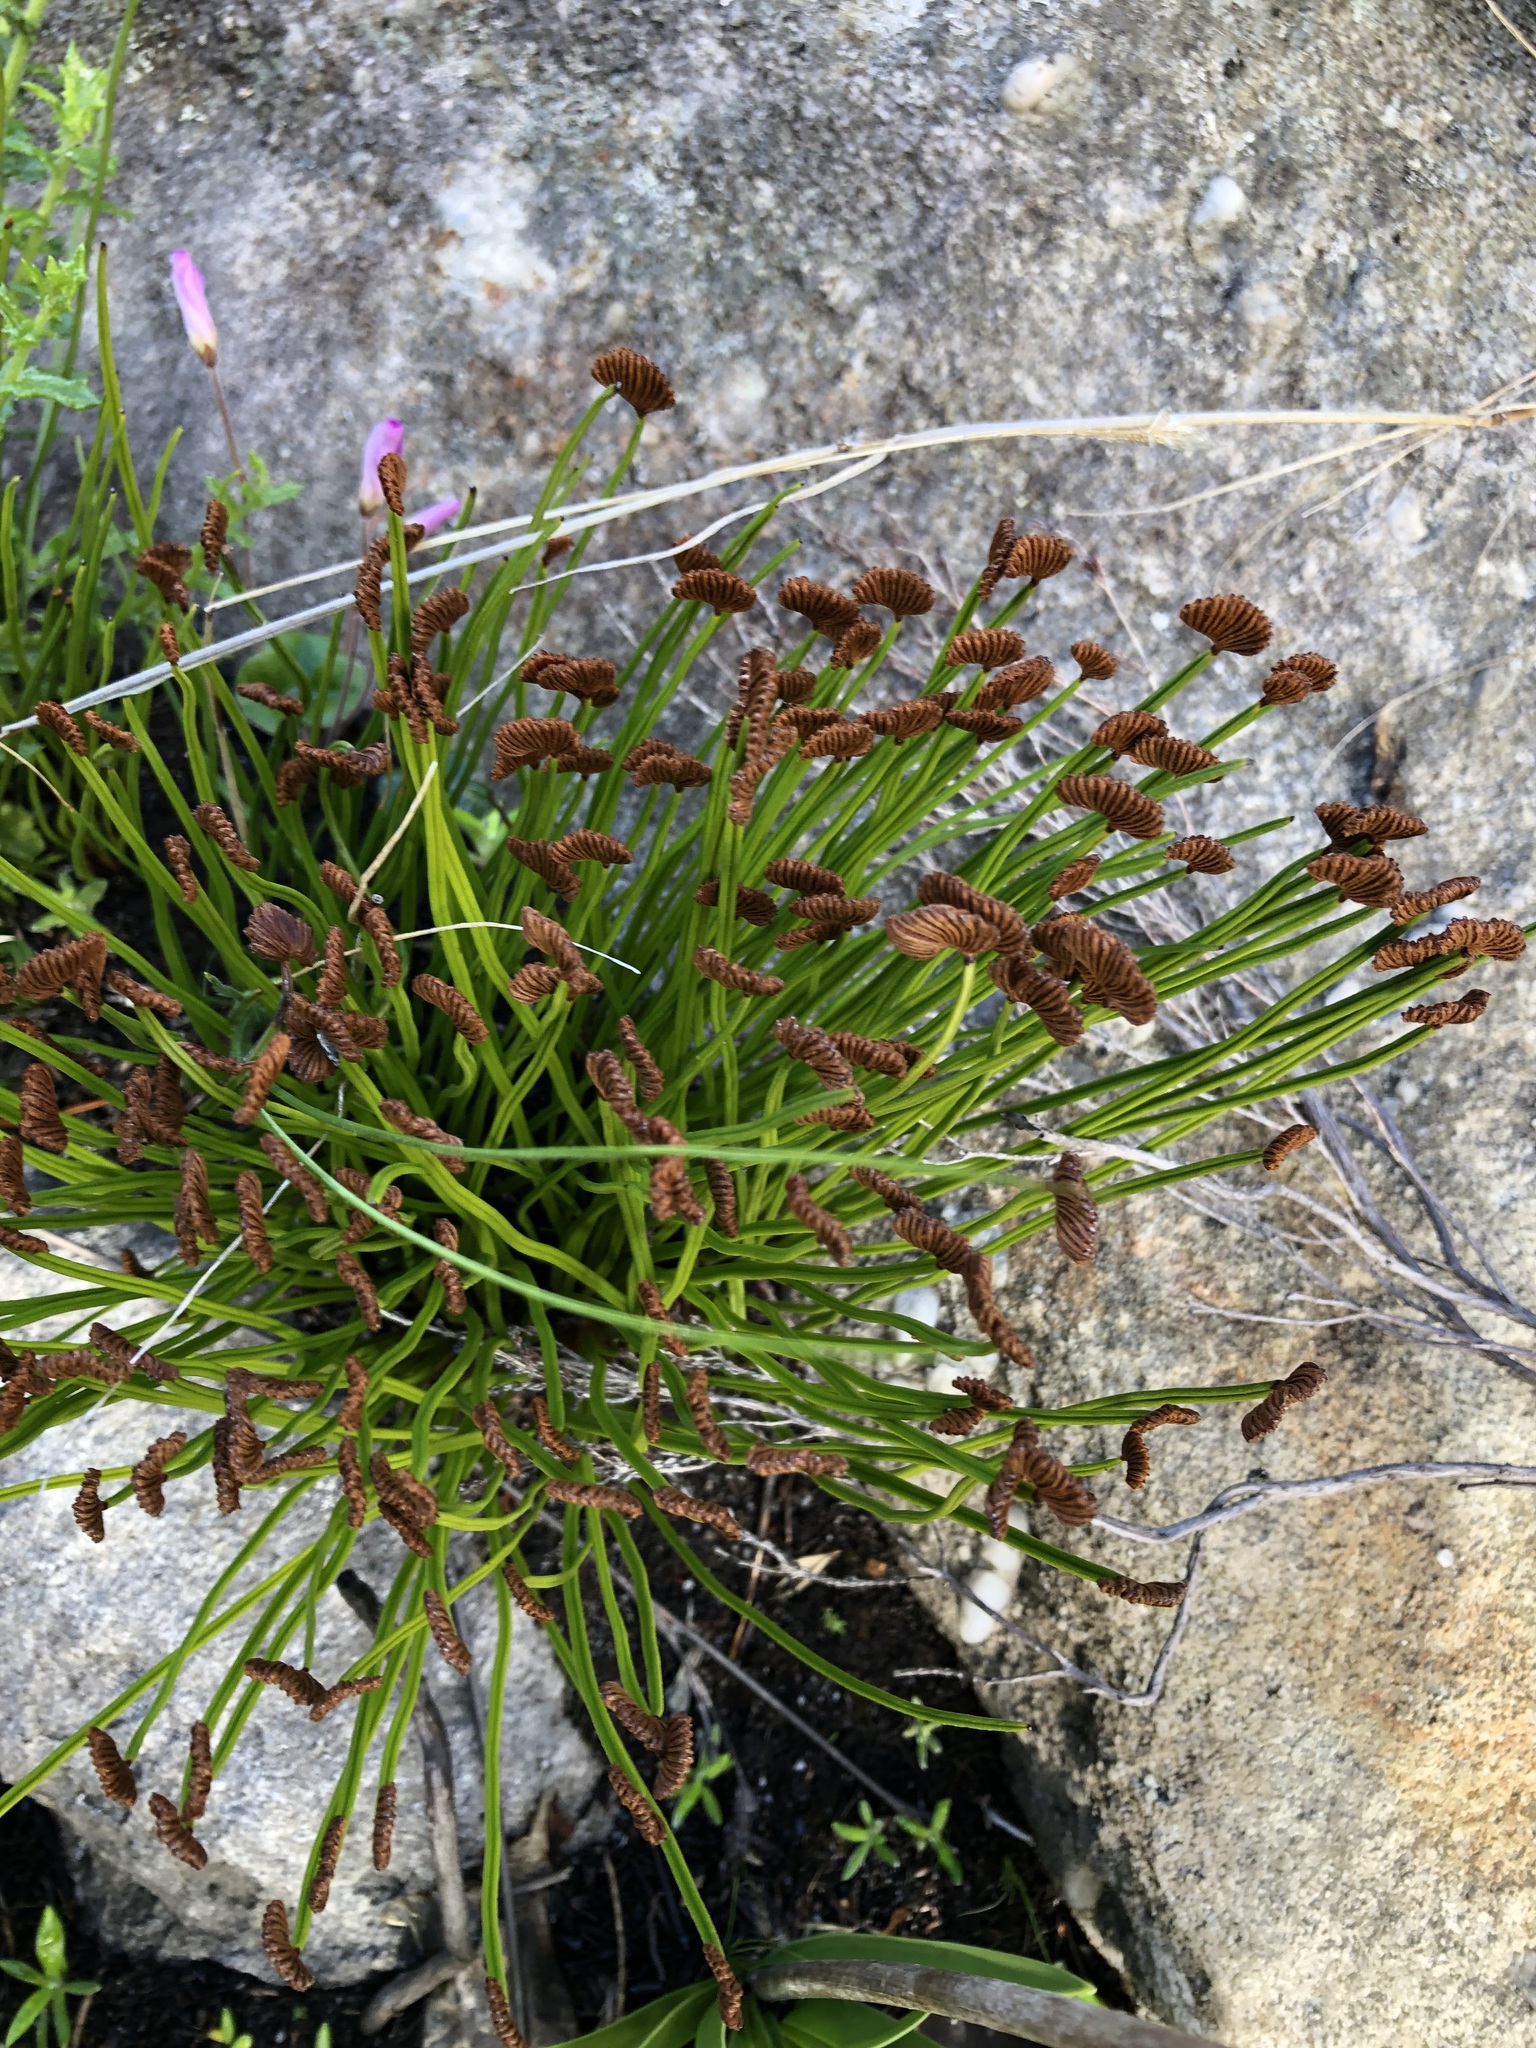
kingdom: Plantae
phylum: Tracheophyta
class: Polypodiopsida
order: Schizaeales
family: Schizaeaceae
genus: Schizaea
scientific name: Schizaea pectinata
